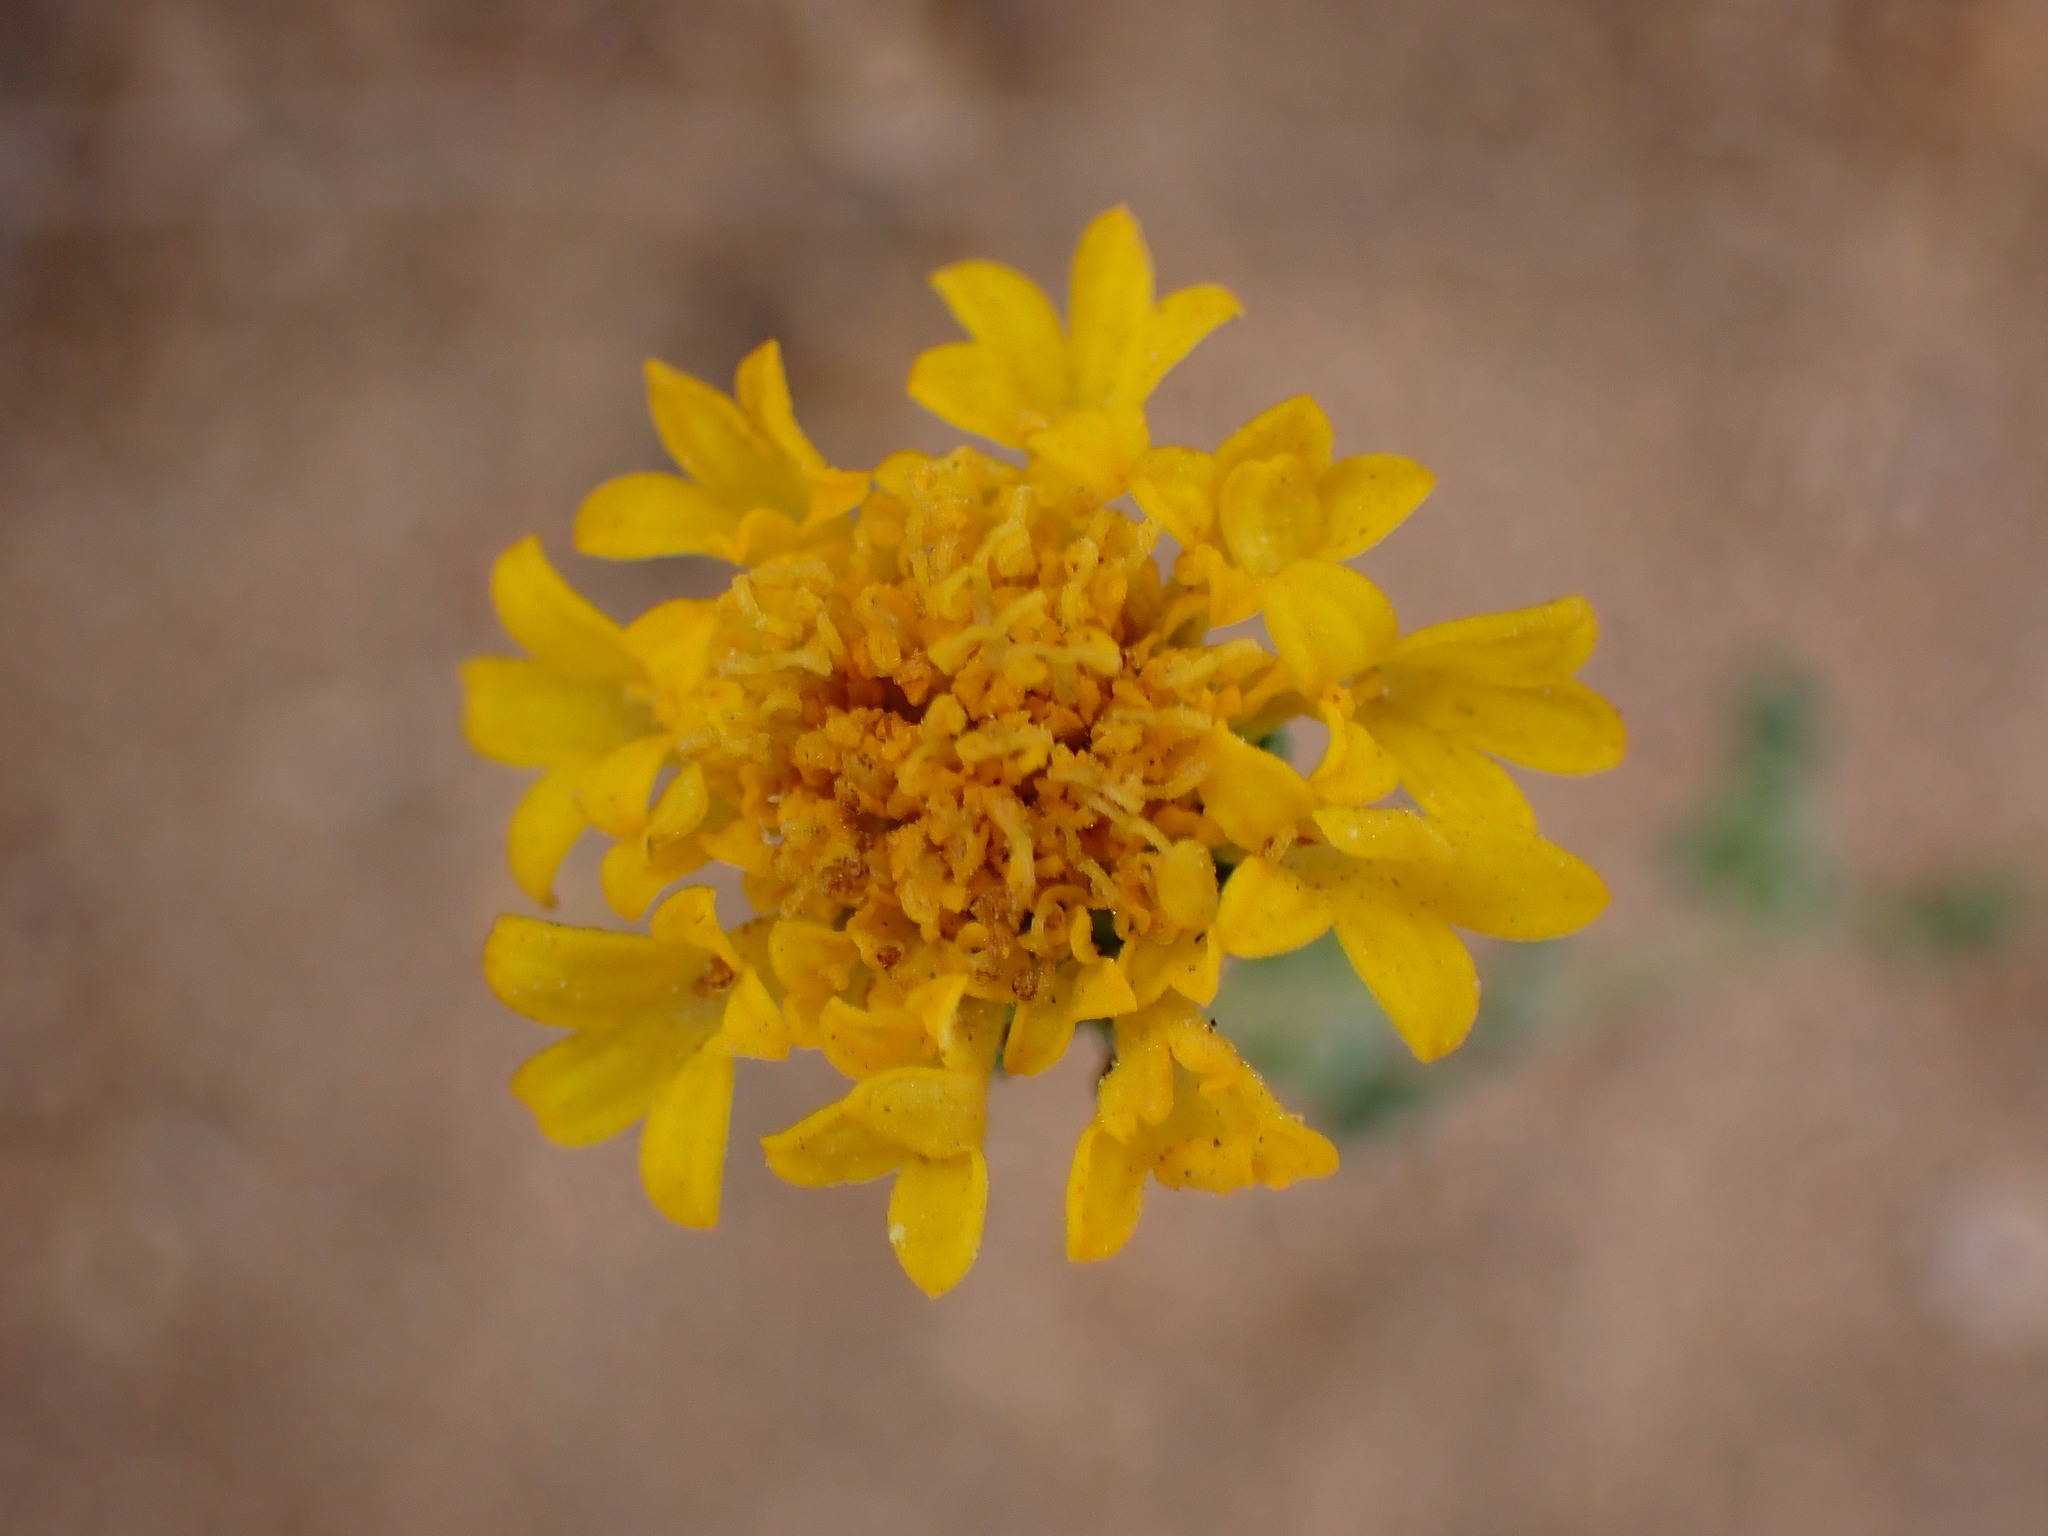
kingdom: Plantae
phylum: Tracheophyta
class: Magnoliopsida
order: Asterales
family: Asteraceae
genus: Chaenactis
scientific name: Chaenactis glabriuscula
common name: Yellow pincushion
